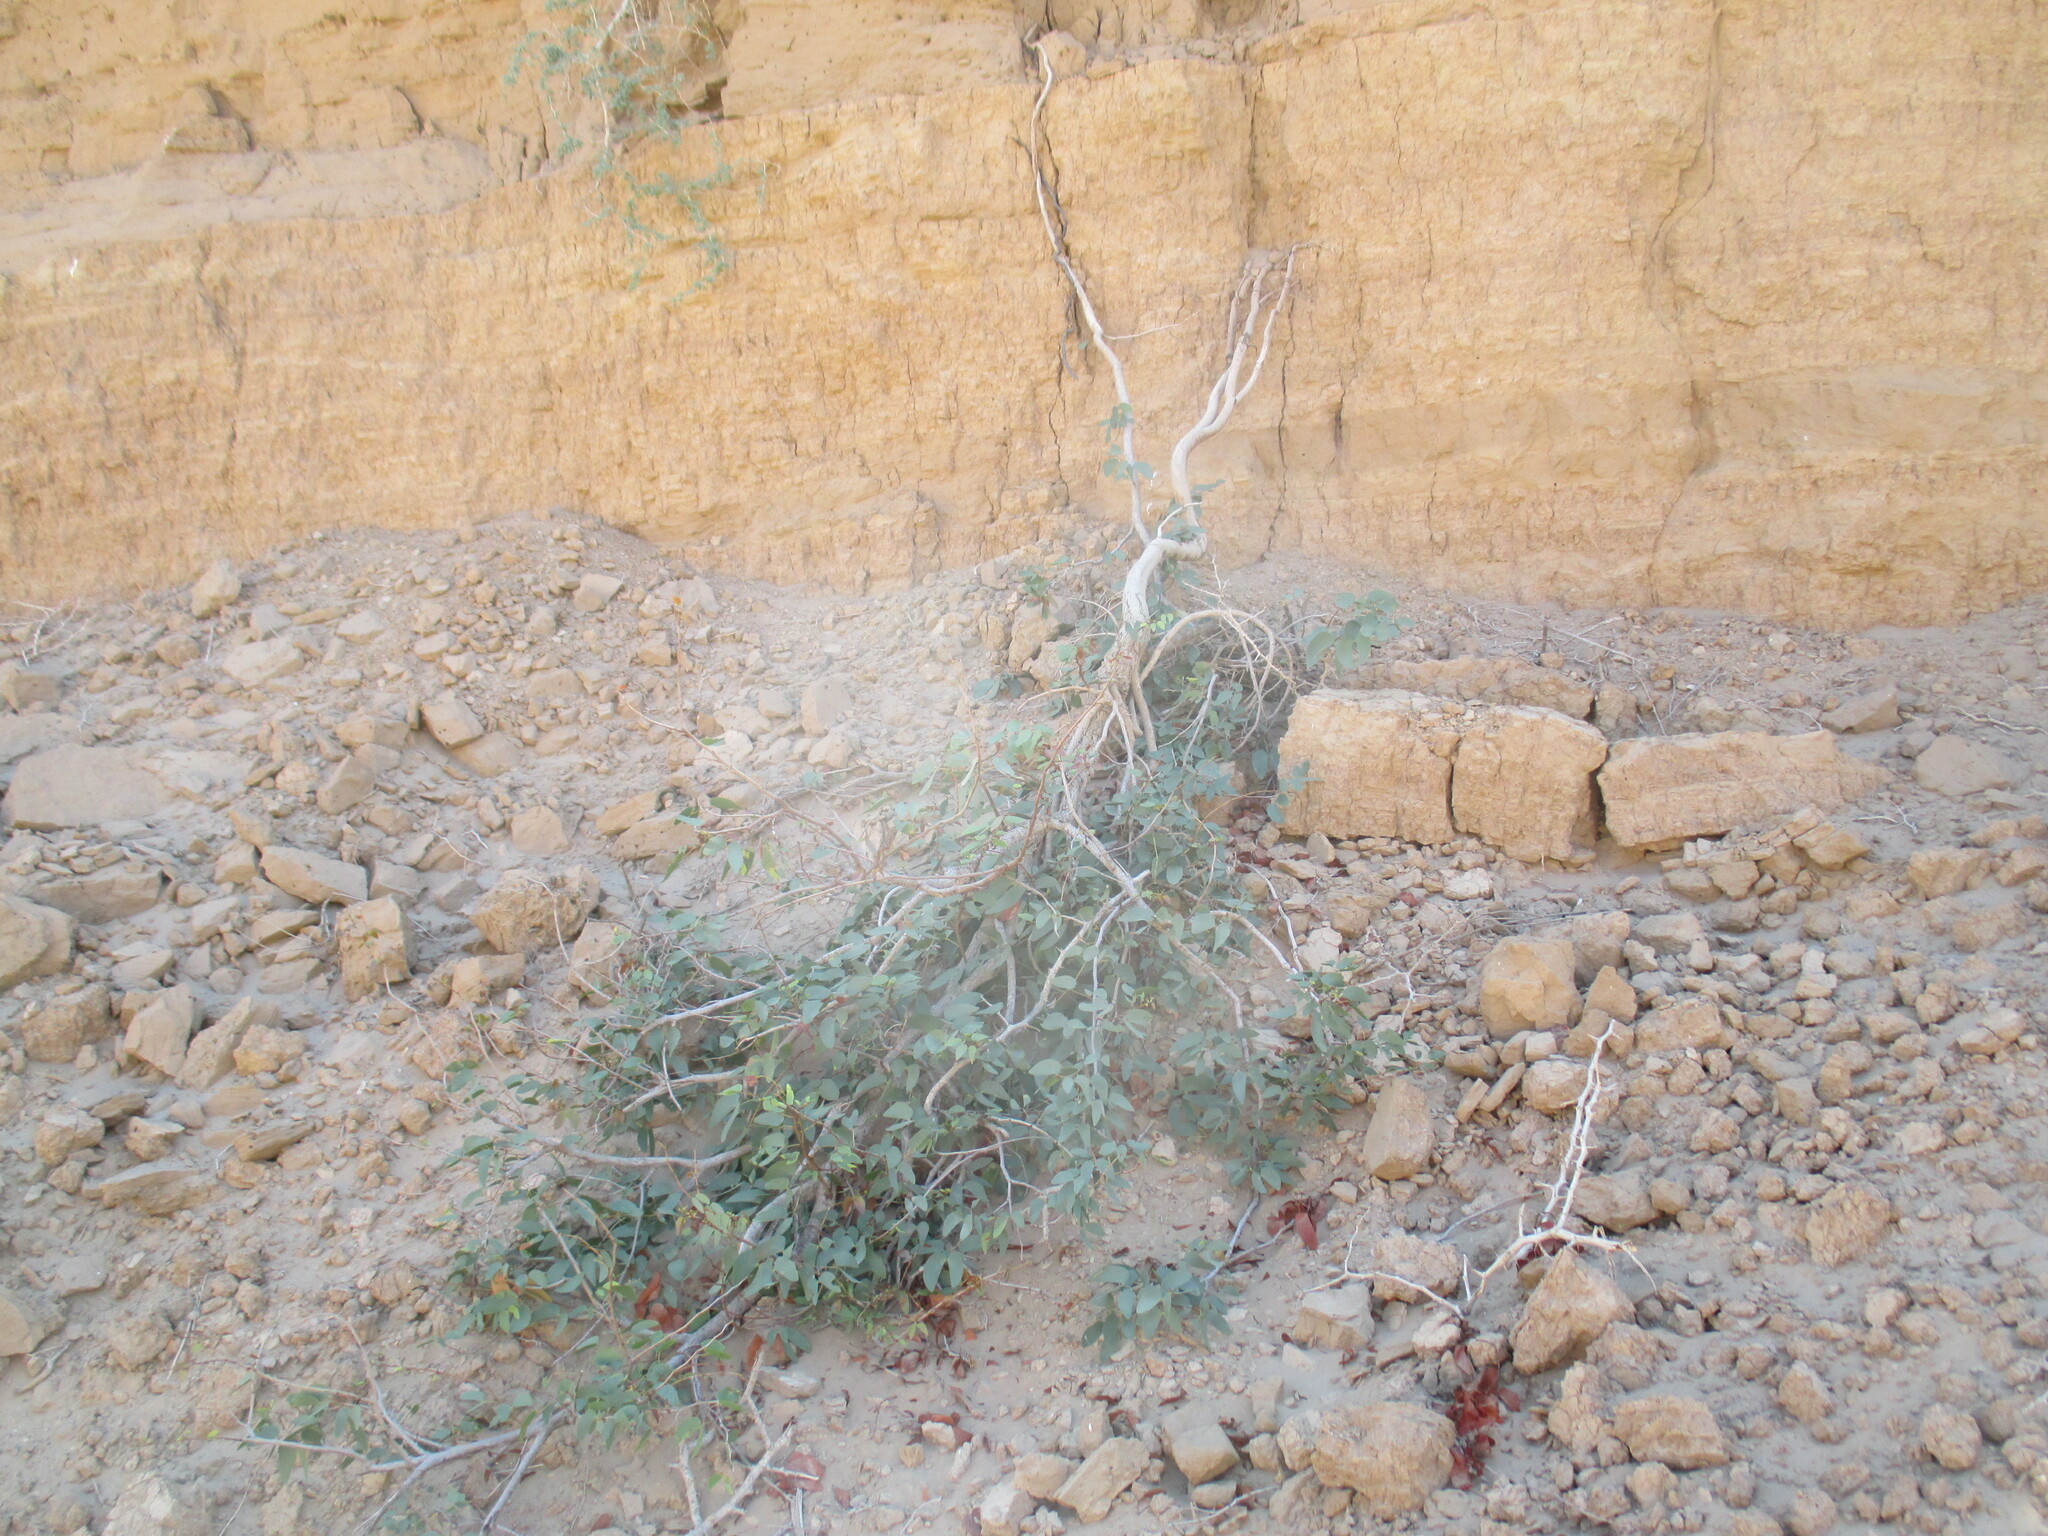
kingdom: Plantae
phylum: Tracheophyta
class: Magnoliopsida
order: Fabales
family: Fabaceae
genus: Colophospermum
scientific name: Colophospermum mopane
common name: Mopane
